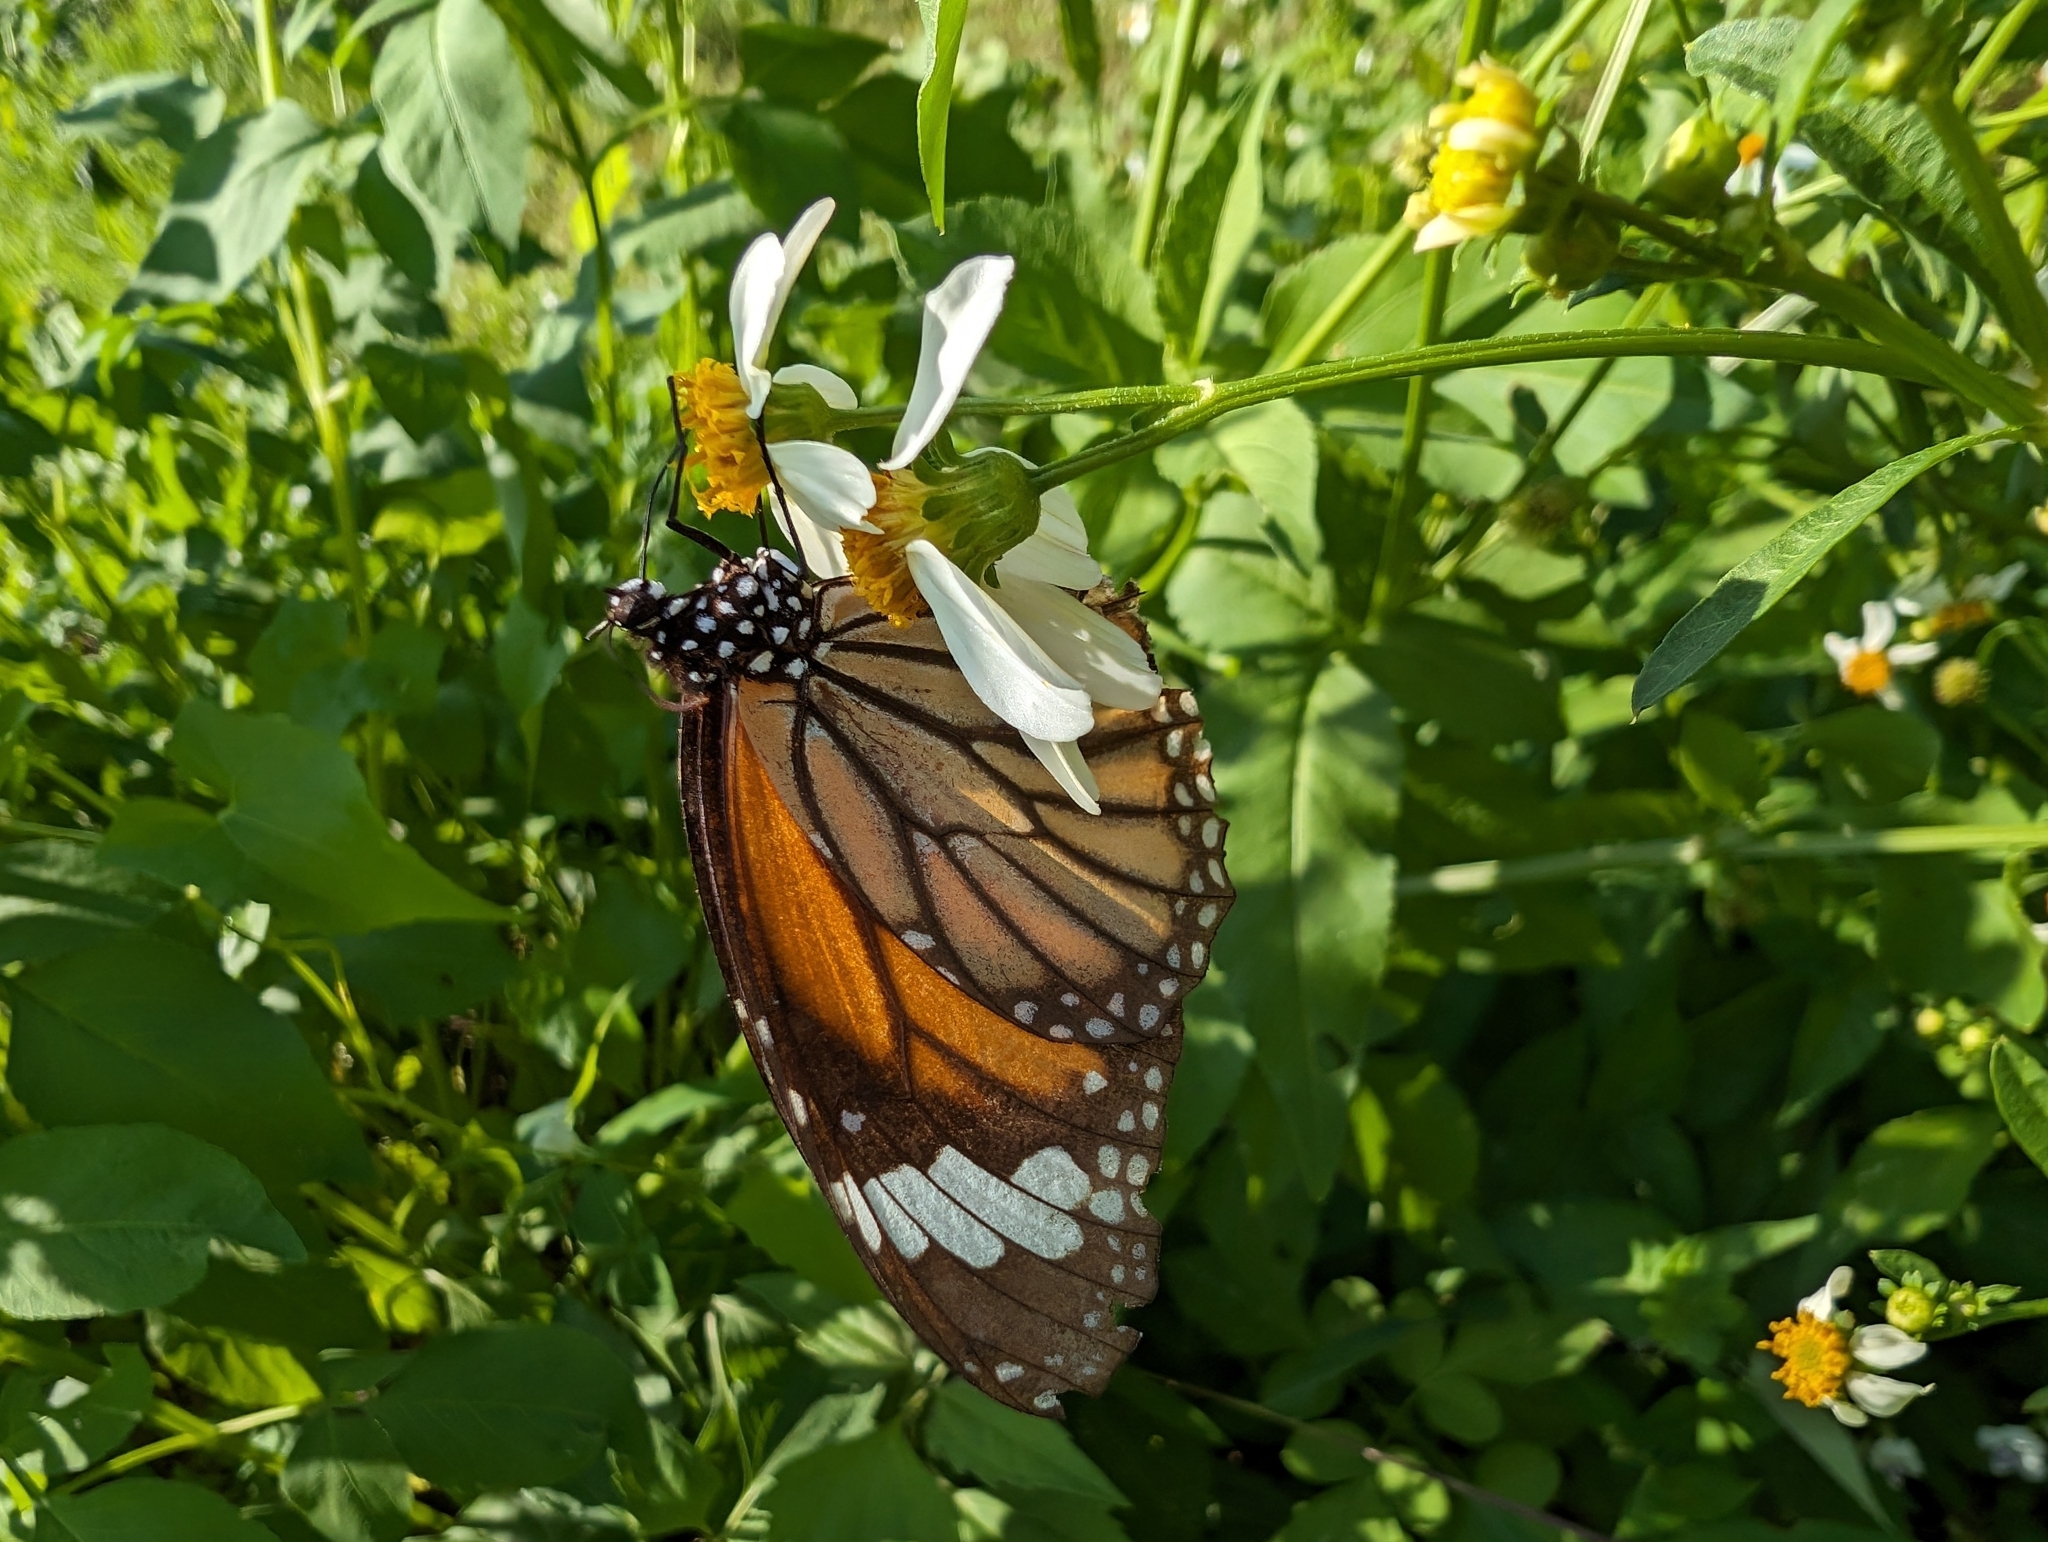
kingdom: Animalia
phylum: Arthropoda
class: Insecta
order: Lepidoptera
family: Nymphalidae
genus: Danaus
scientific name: Danaus genutia
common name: Common tiger butterfly
